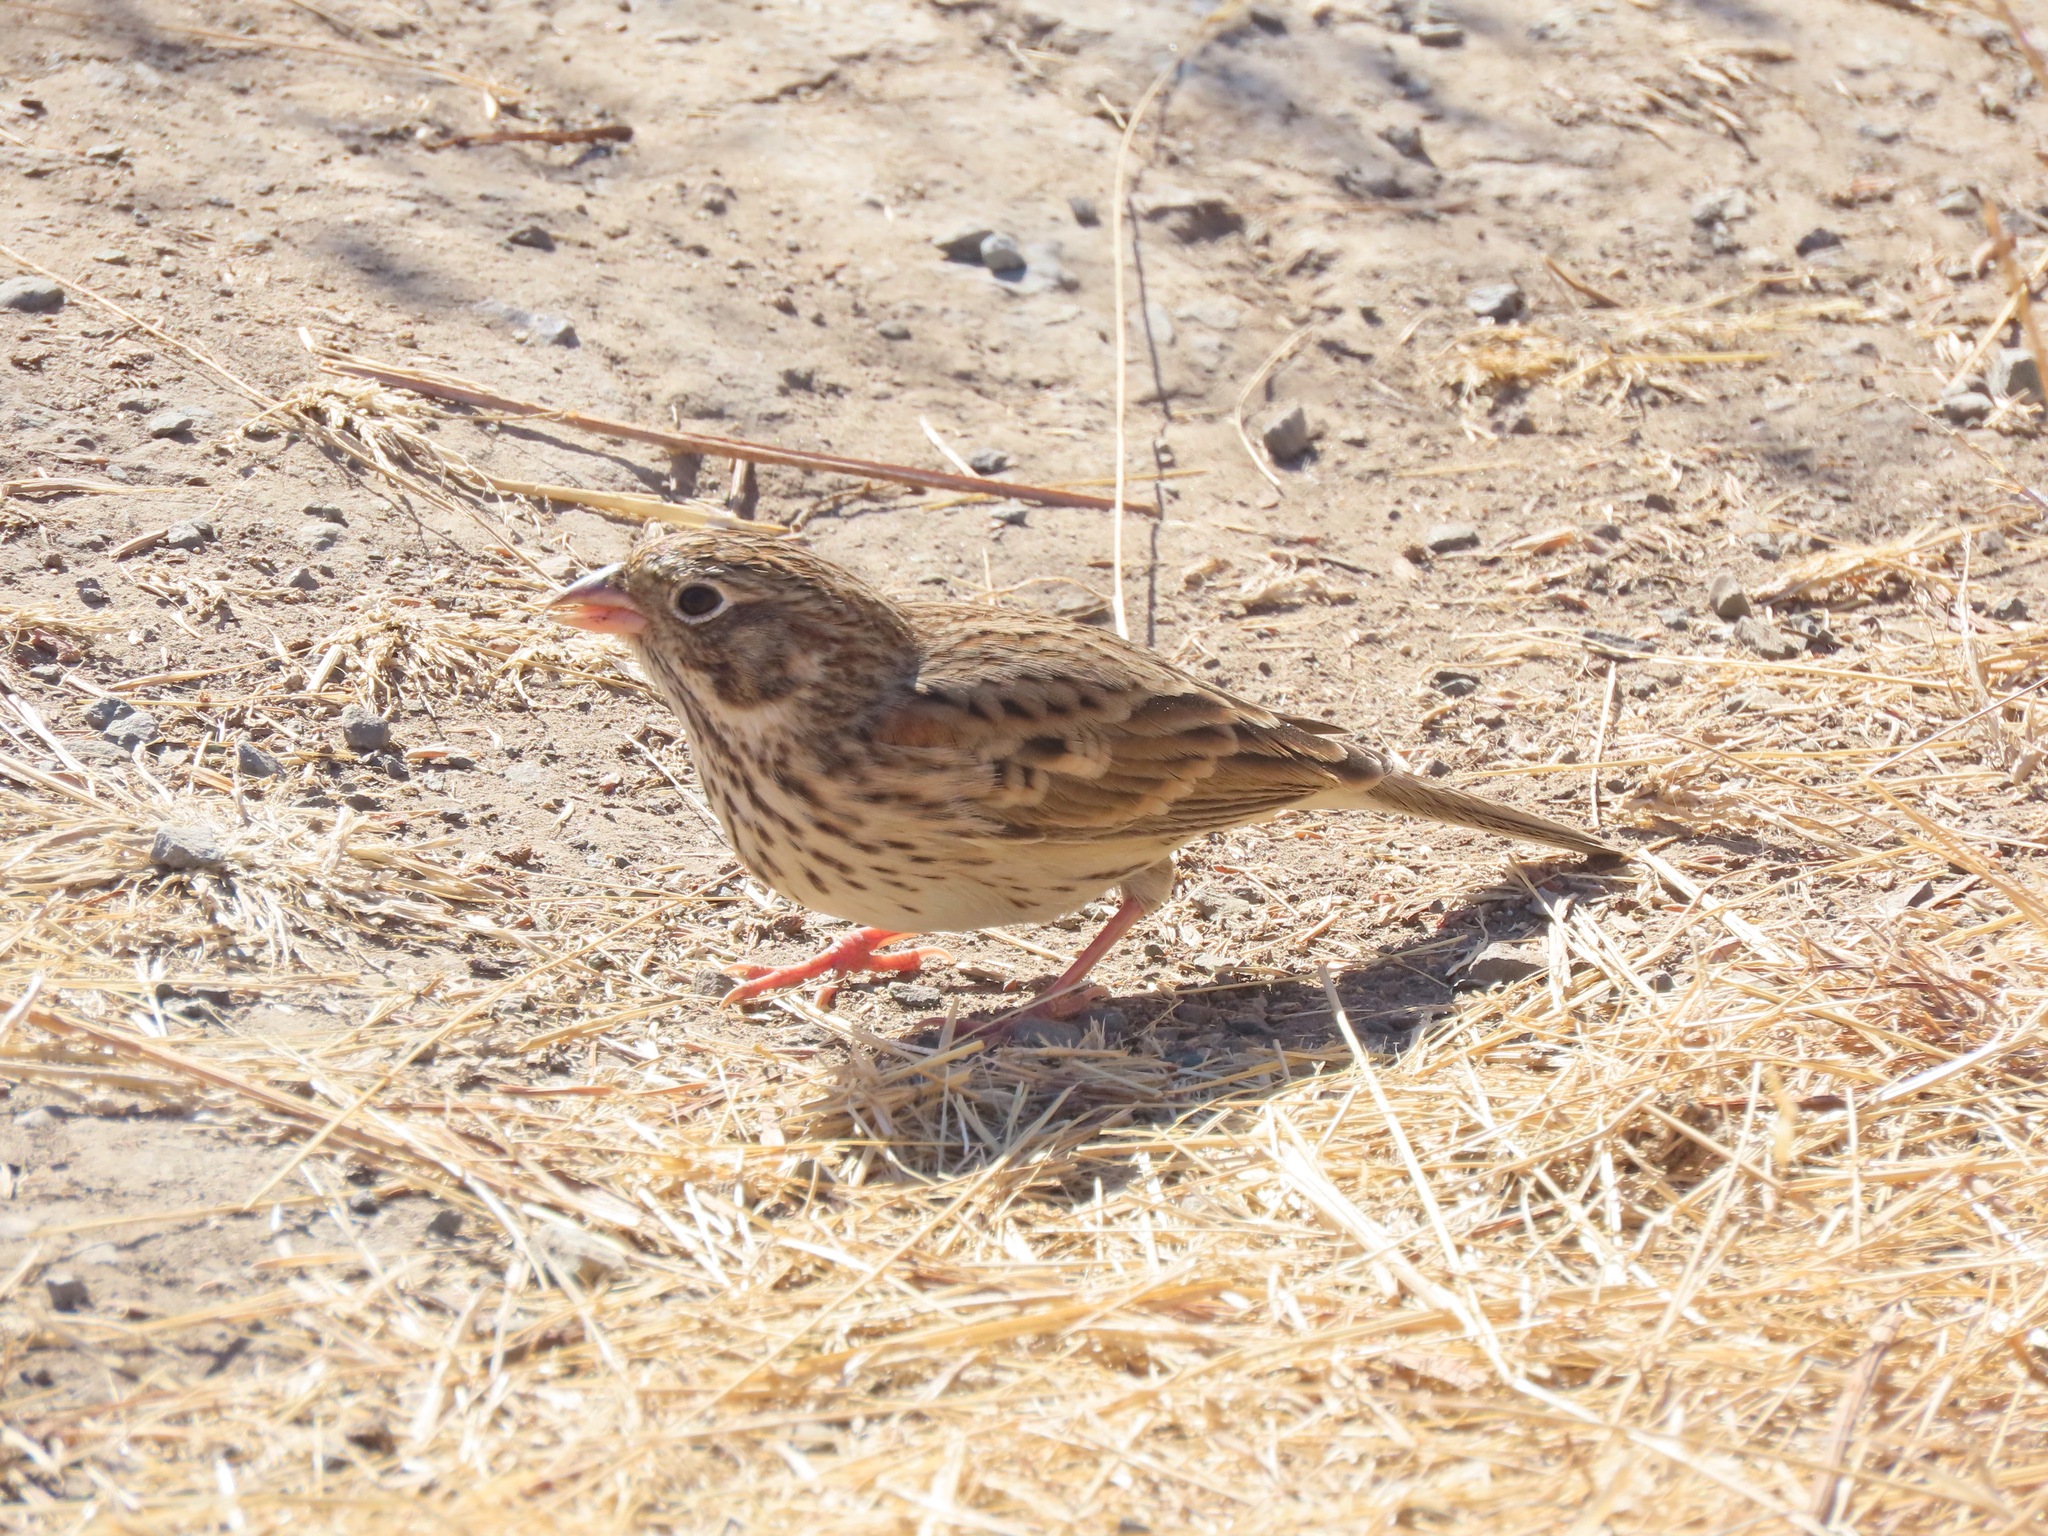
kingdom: Animalia
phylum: Chordata
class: Aves
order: Passeriformes
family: Passerellidae
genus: Pooecetes
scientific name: Pooecetes gramineus
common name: Vesper sparrow
